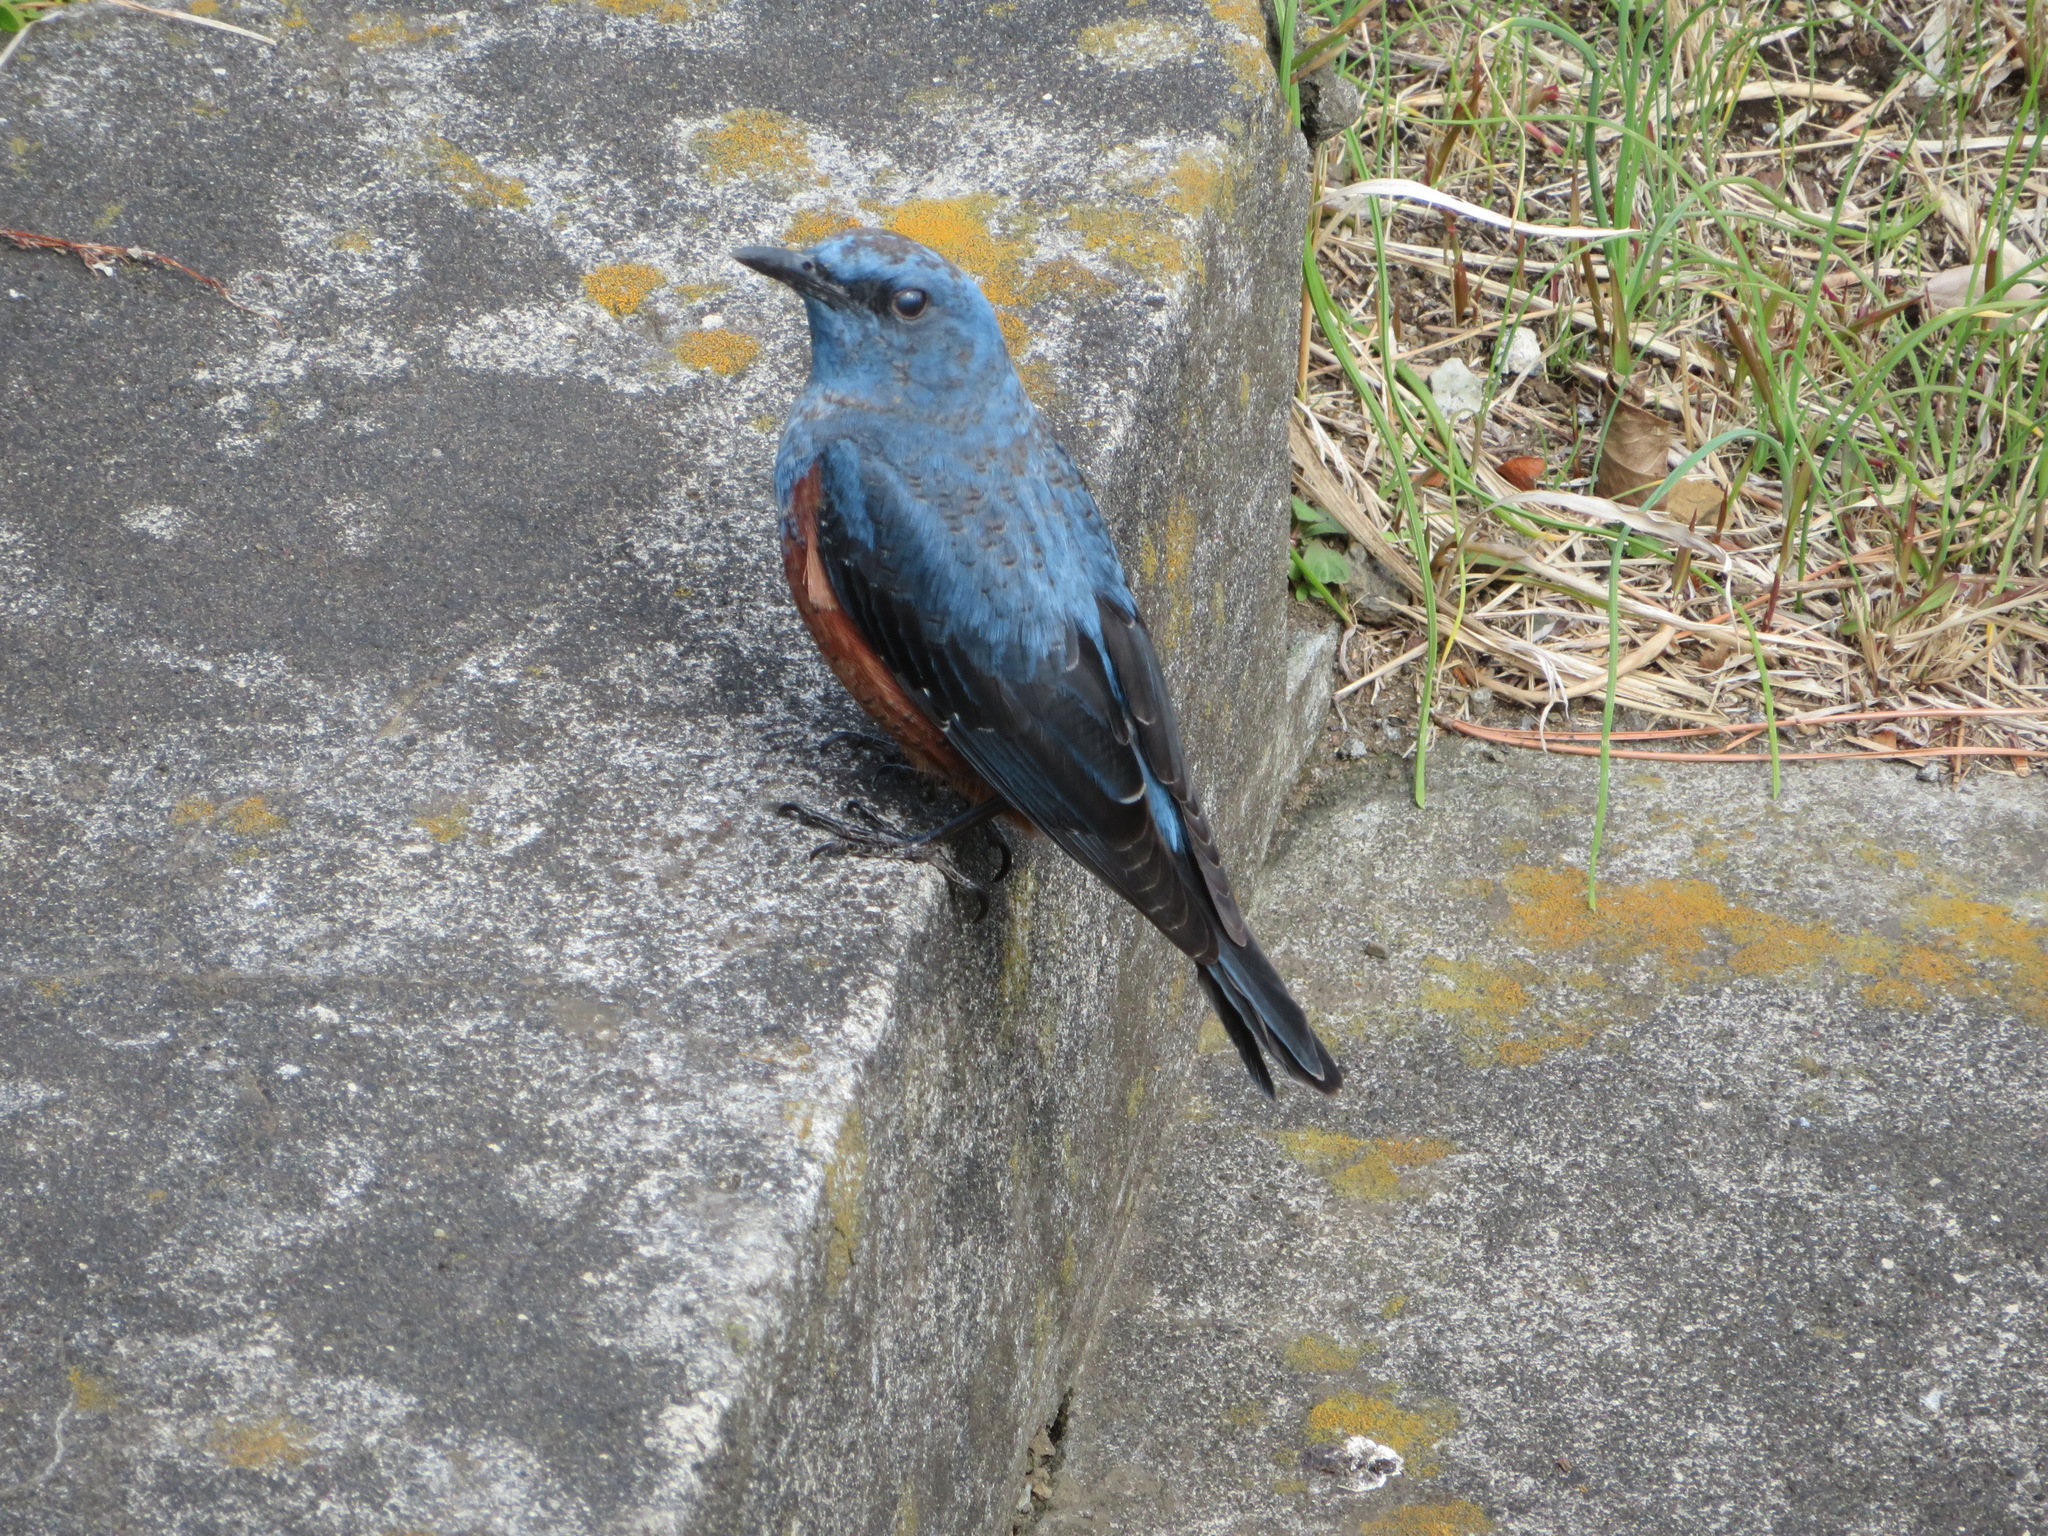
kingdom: Animalia
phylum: Chordata
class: Aves
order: Passeriformes
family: Muscicapidae
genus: Monticola
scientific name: Monticola solitarius
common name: Blue rock thrush
